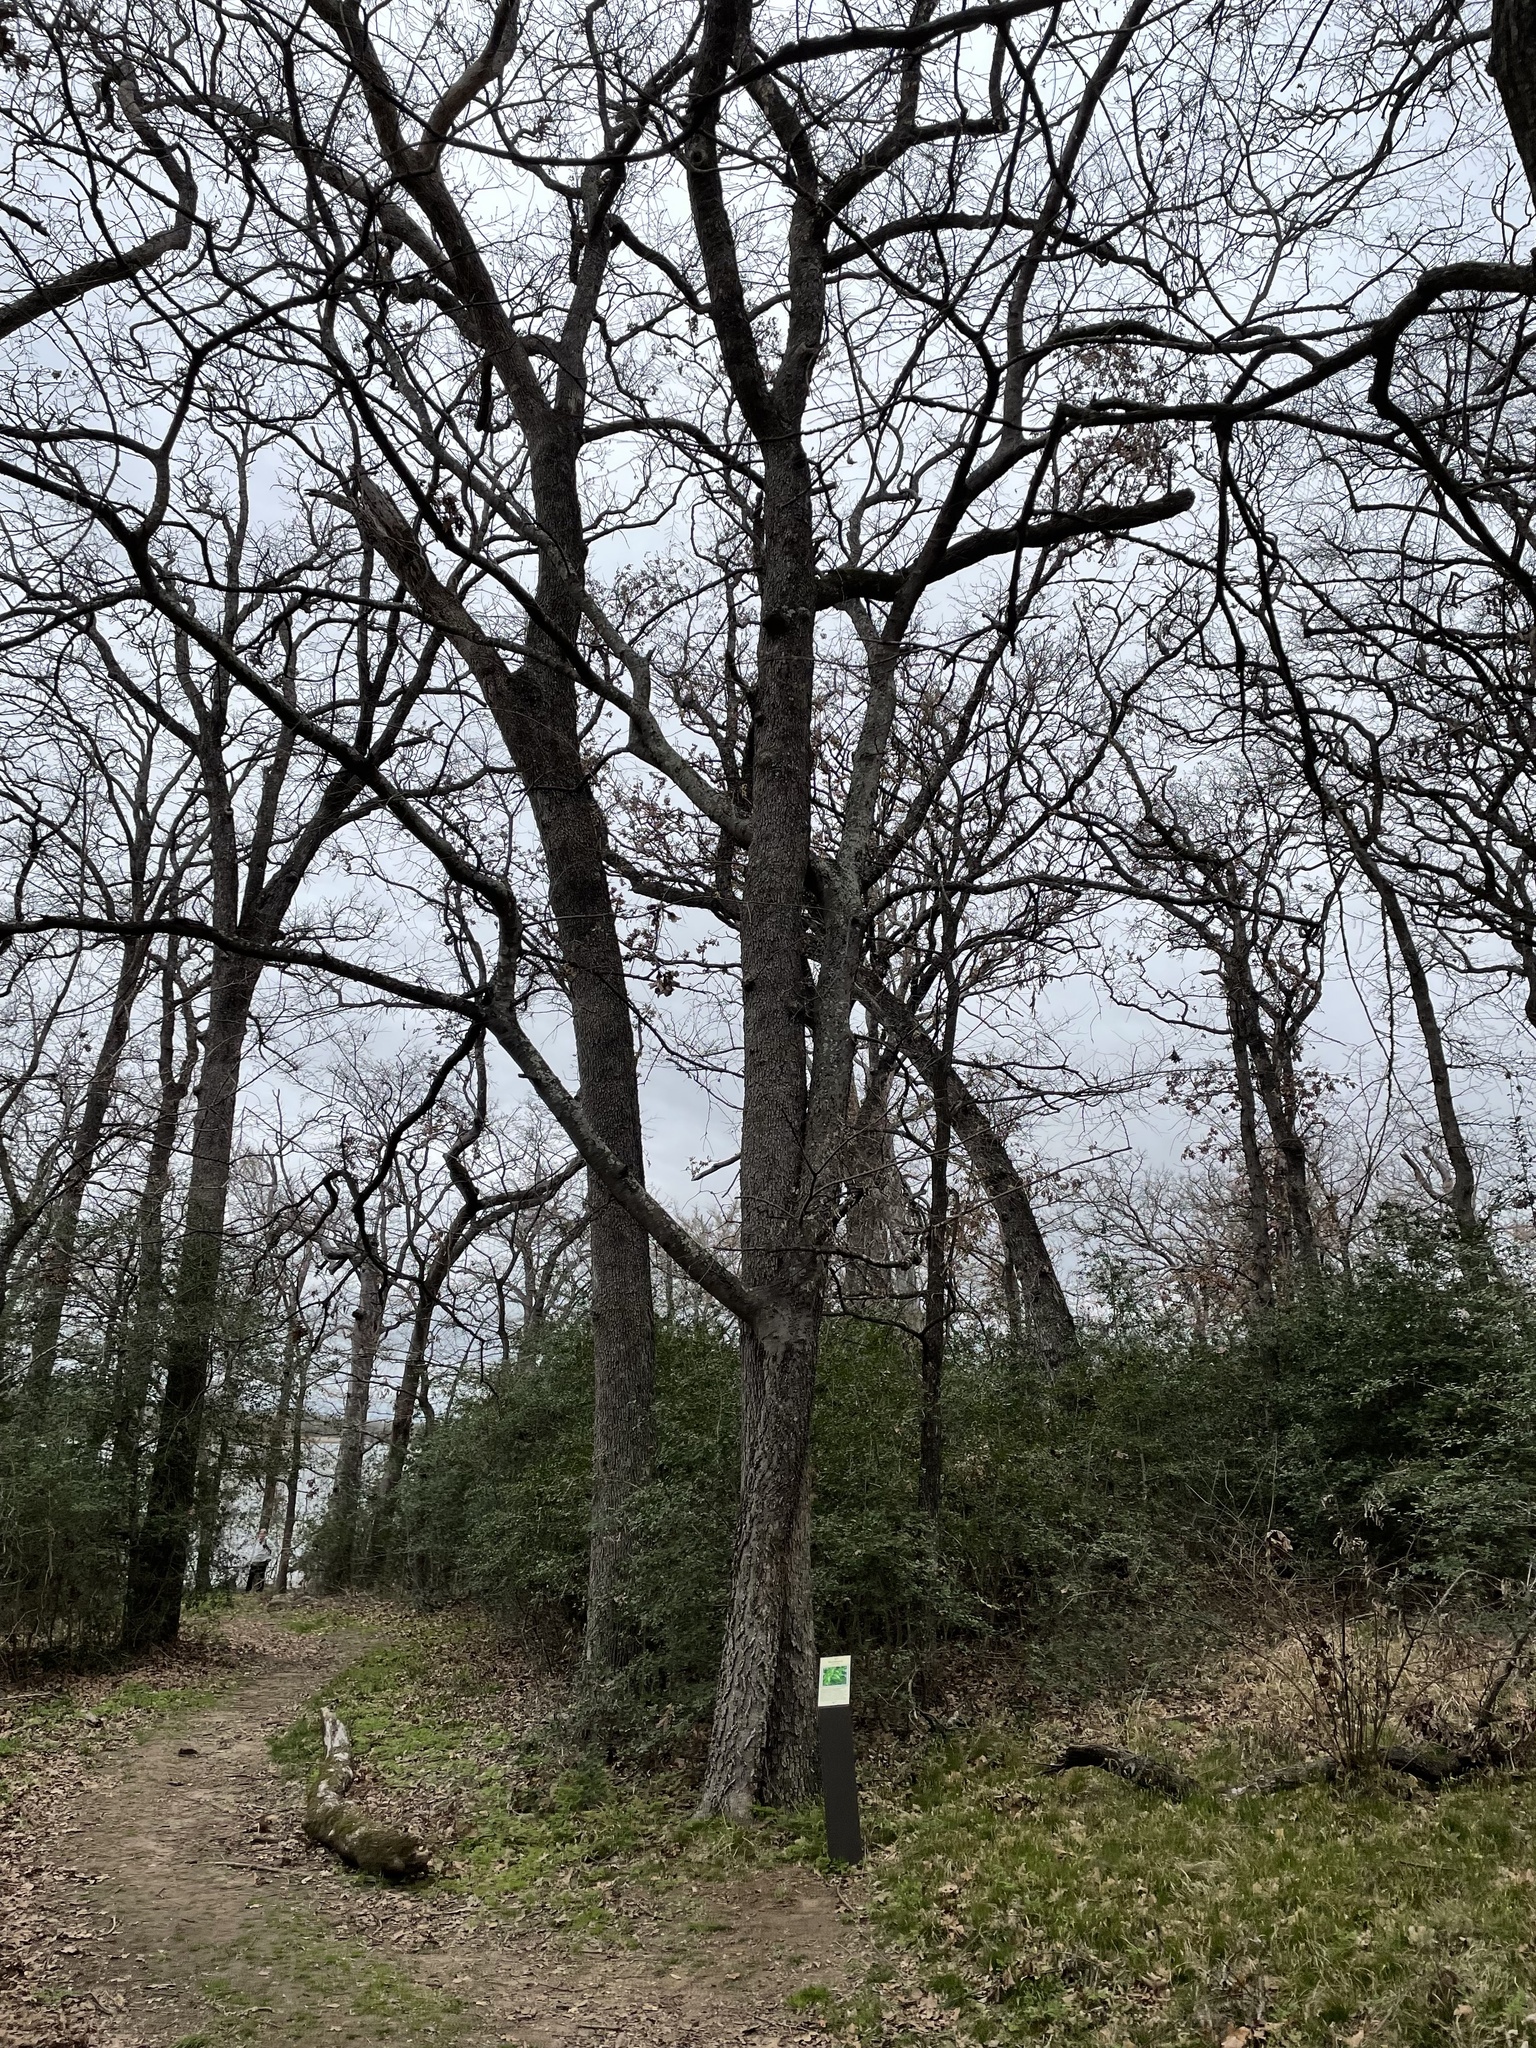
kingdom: Plantae
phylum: Tracheophyta
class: Magnoliopsida
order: Rosales
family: Cannabaceae
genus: Celtis
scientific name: Celtis laevigata
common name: Sugarberry
